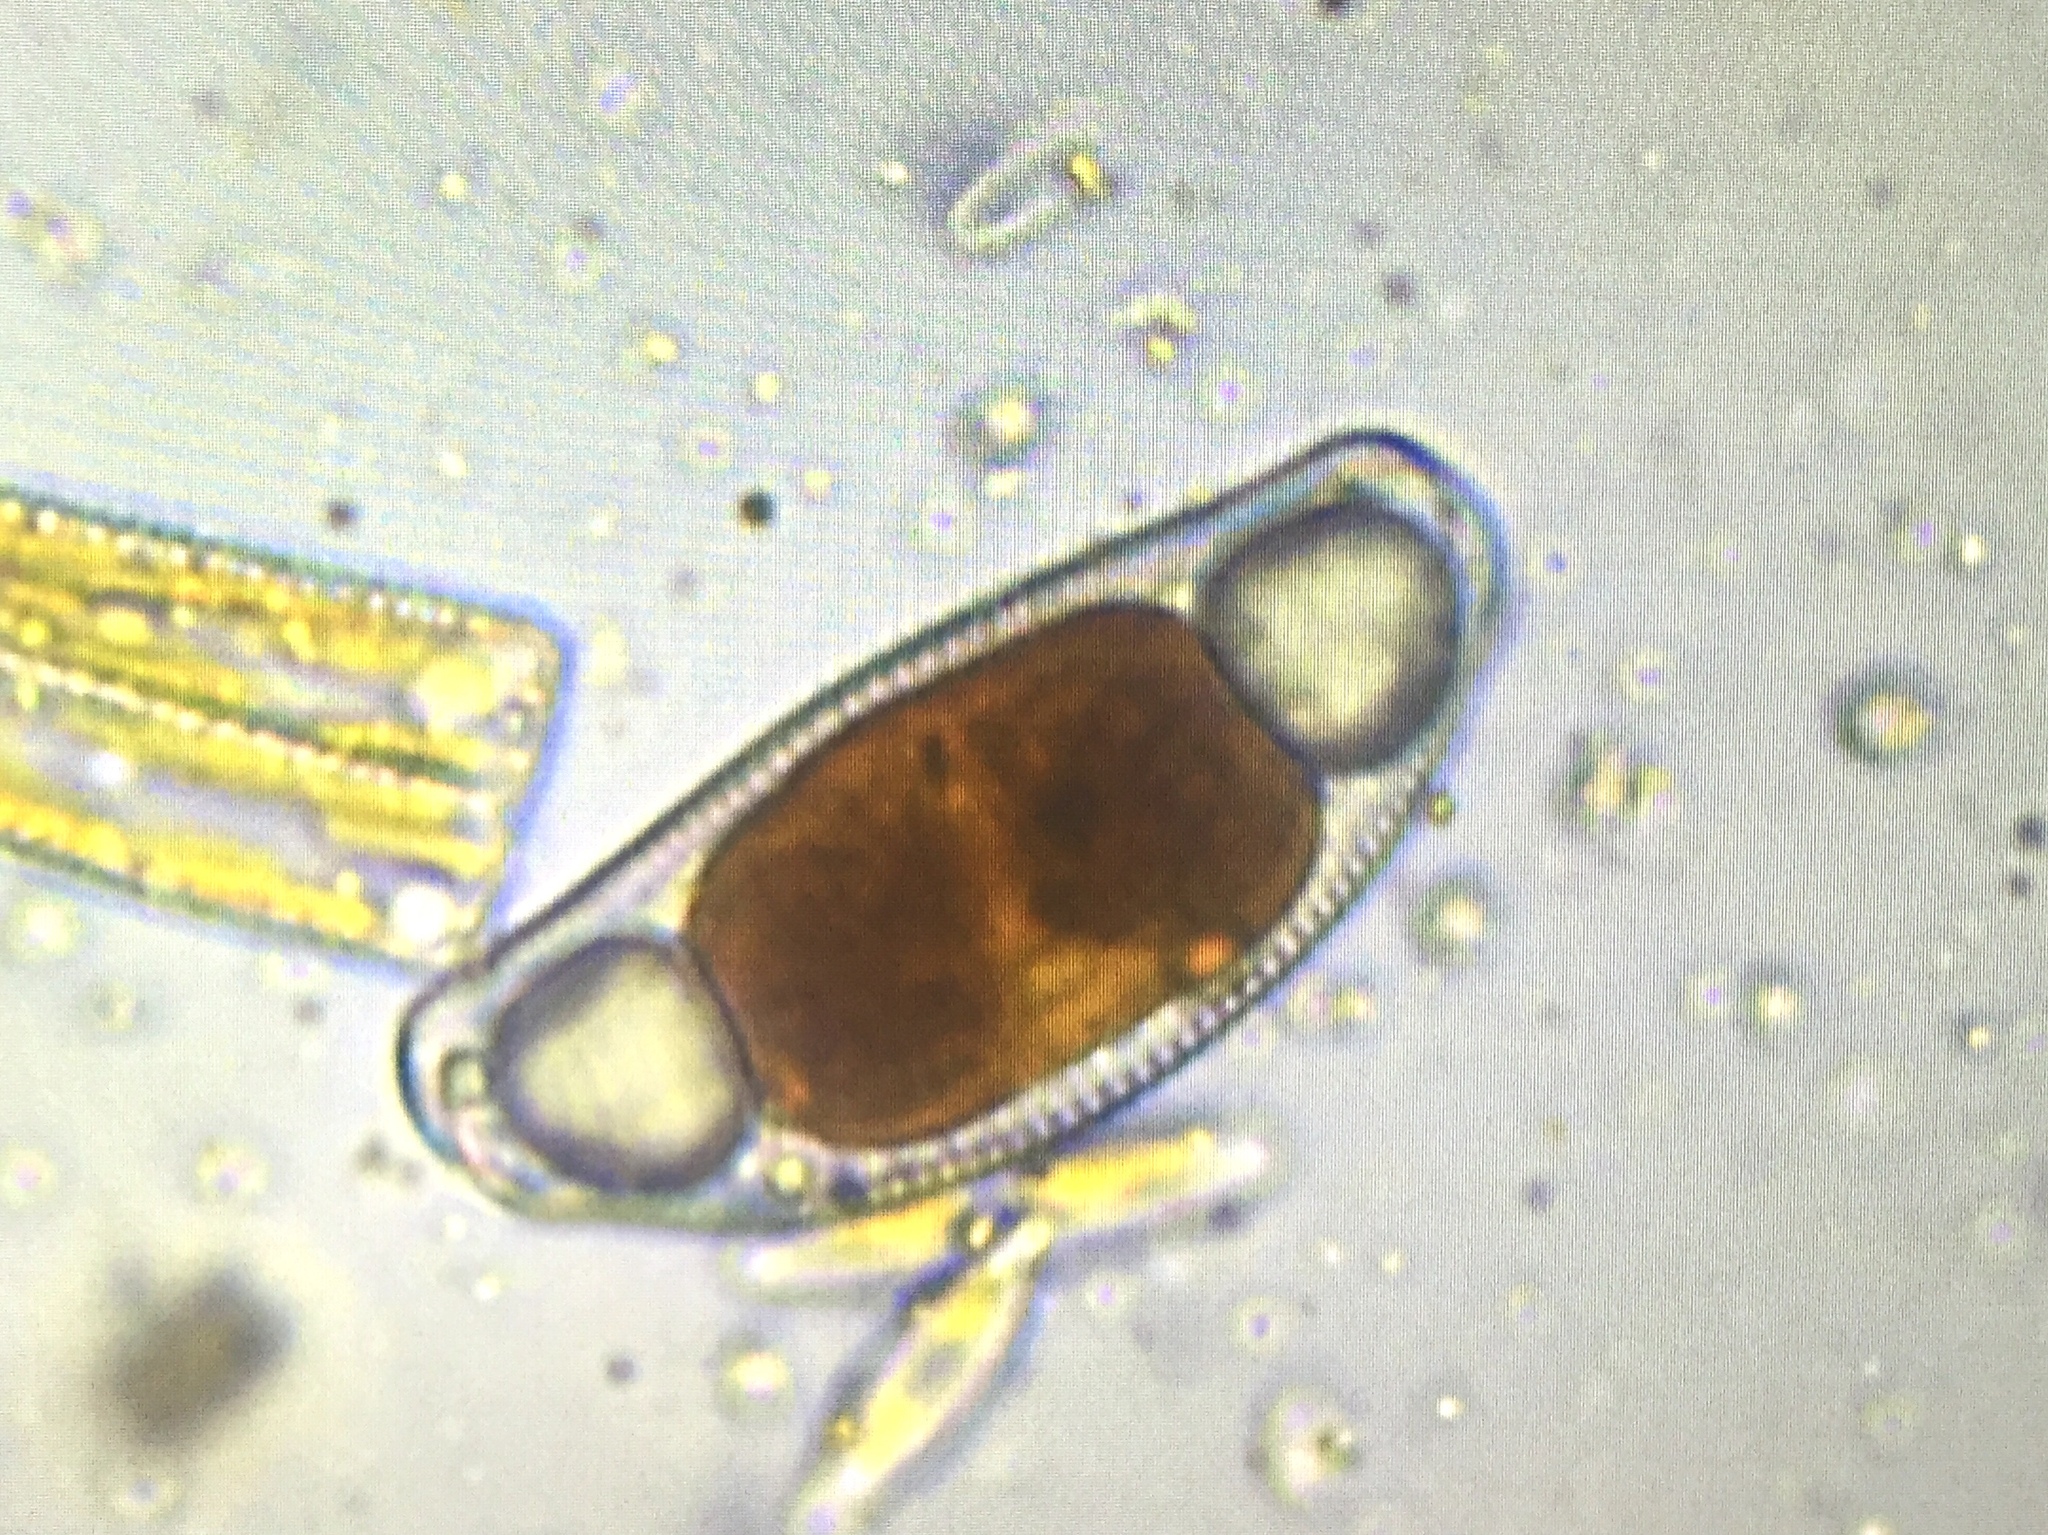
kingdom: Chromista
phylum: Ochrophyta
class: Bacillariophyceae
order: Cymbellales
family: Cymbellaceae
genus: Encyonema
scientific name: Encyonema leibleinii
